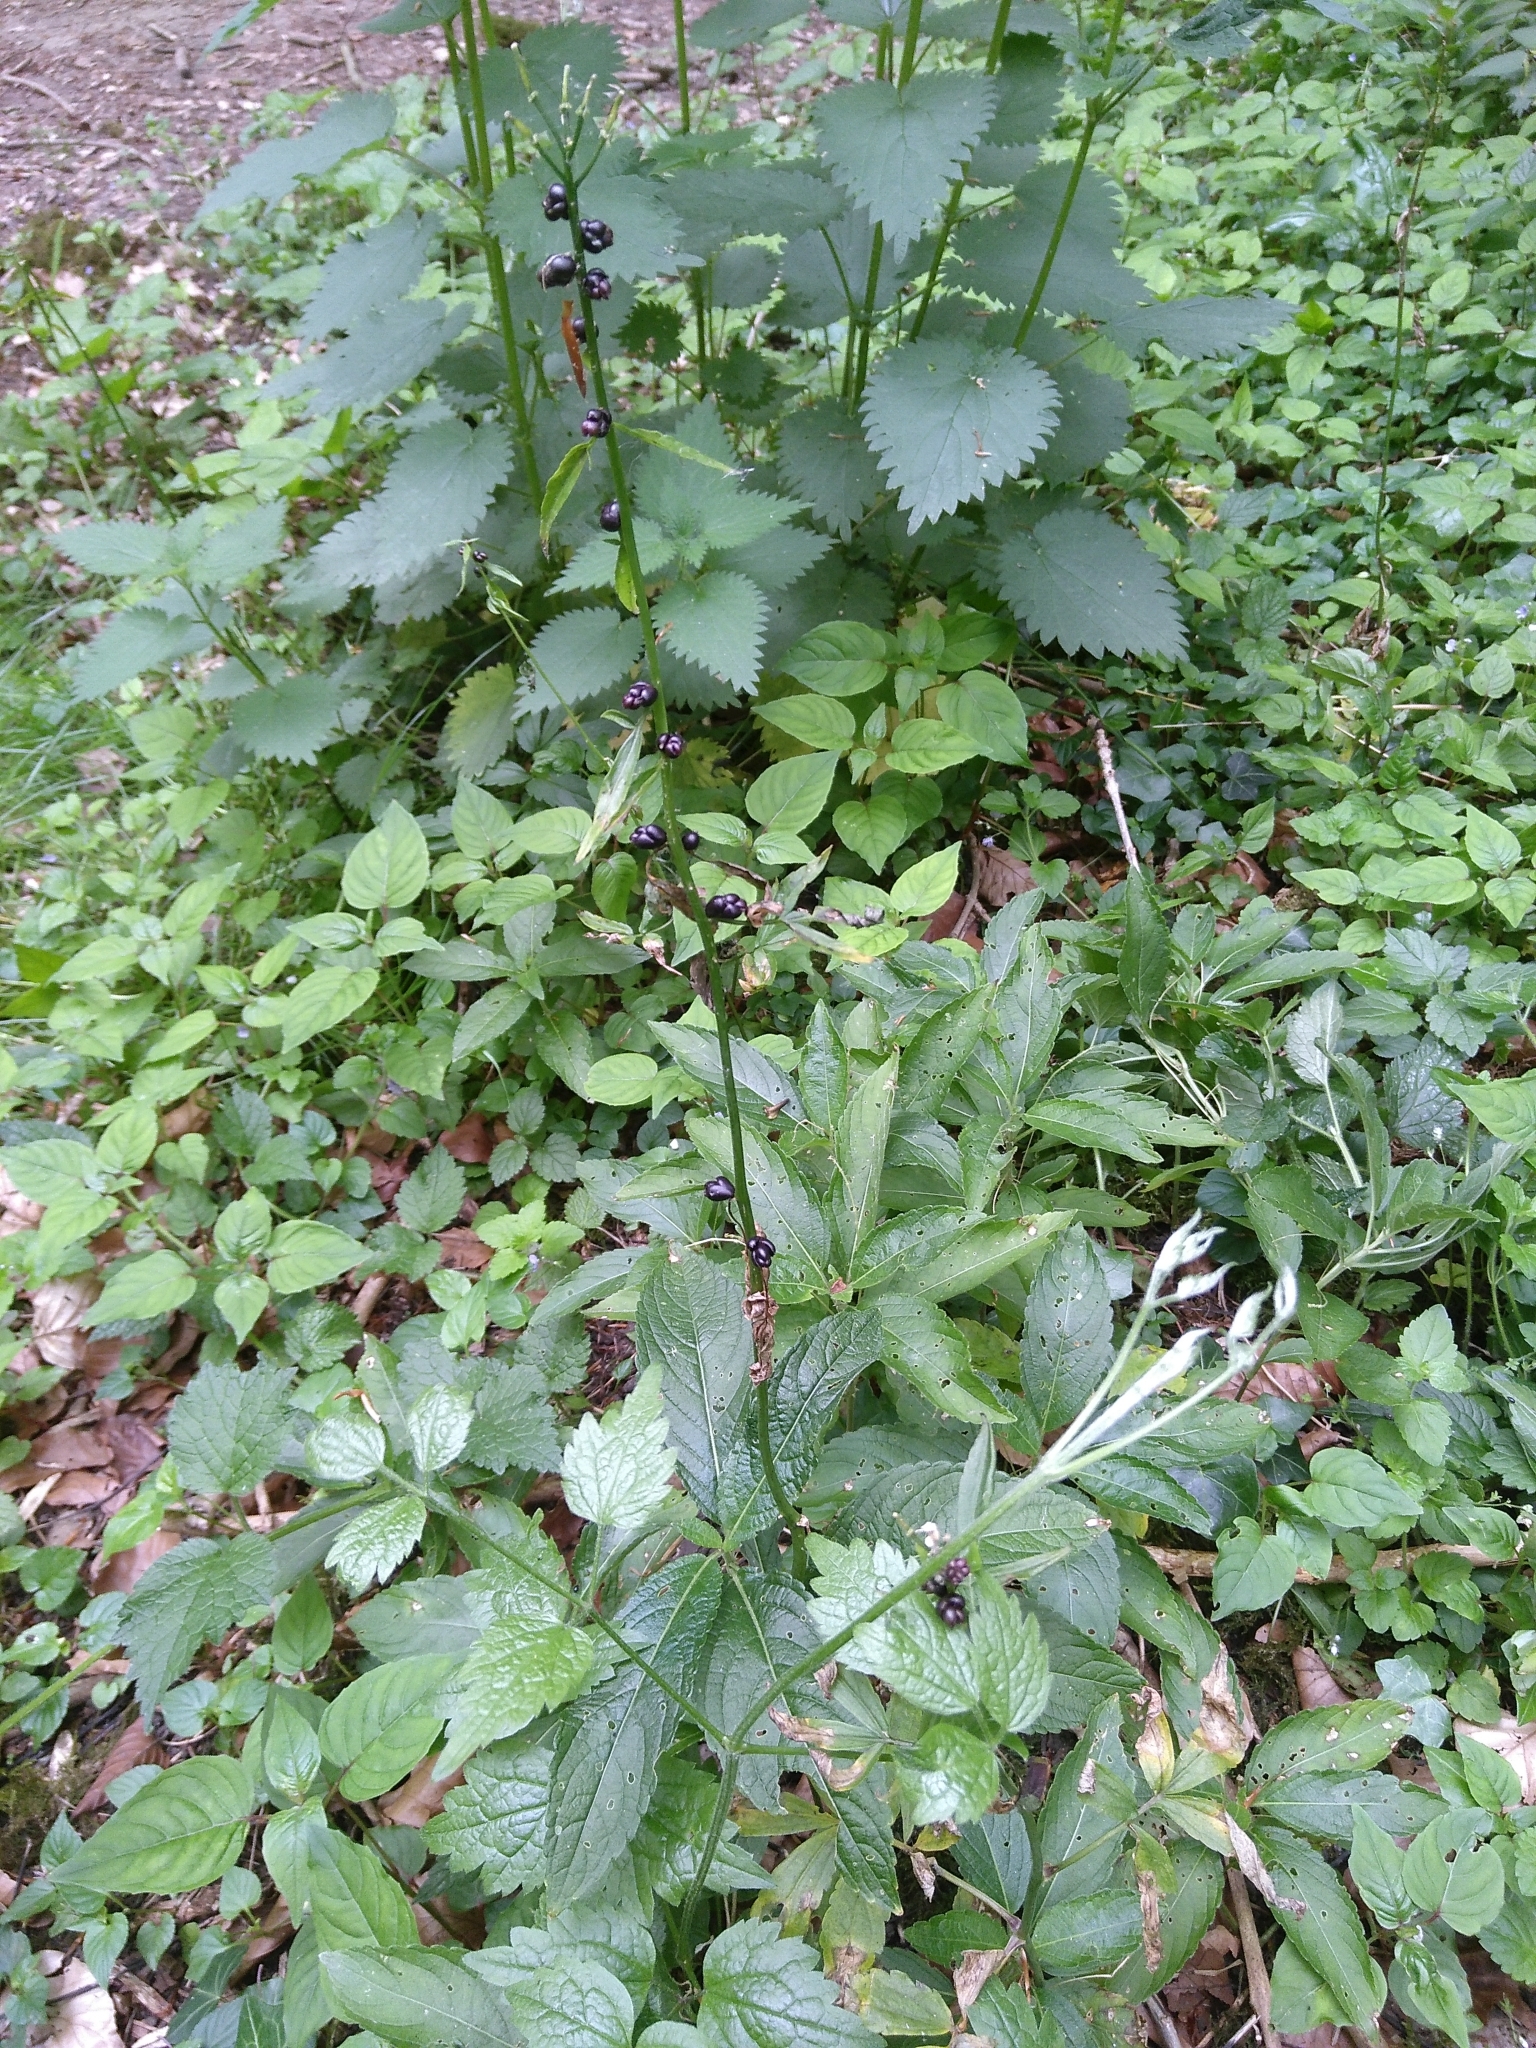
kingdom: Plantae
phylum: Tracheophyta
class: Magnoliopsida
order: Brassicales
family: Brassicaceae
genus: Cardamine
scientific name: Cardamine bulbifera
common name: Coralroot bittercress
